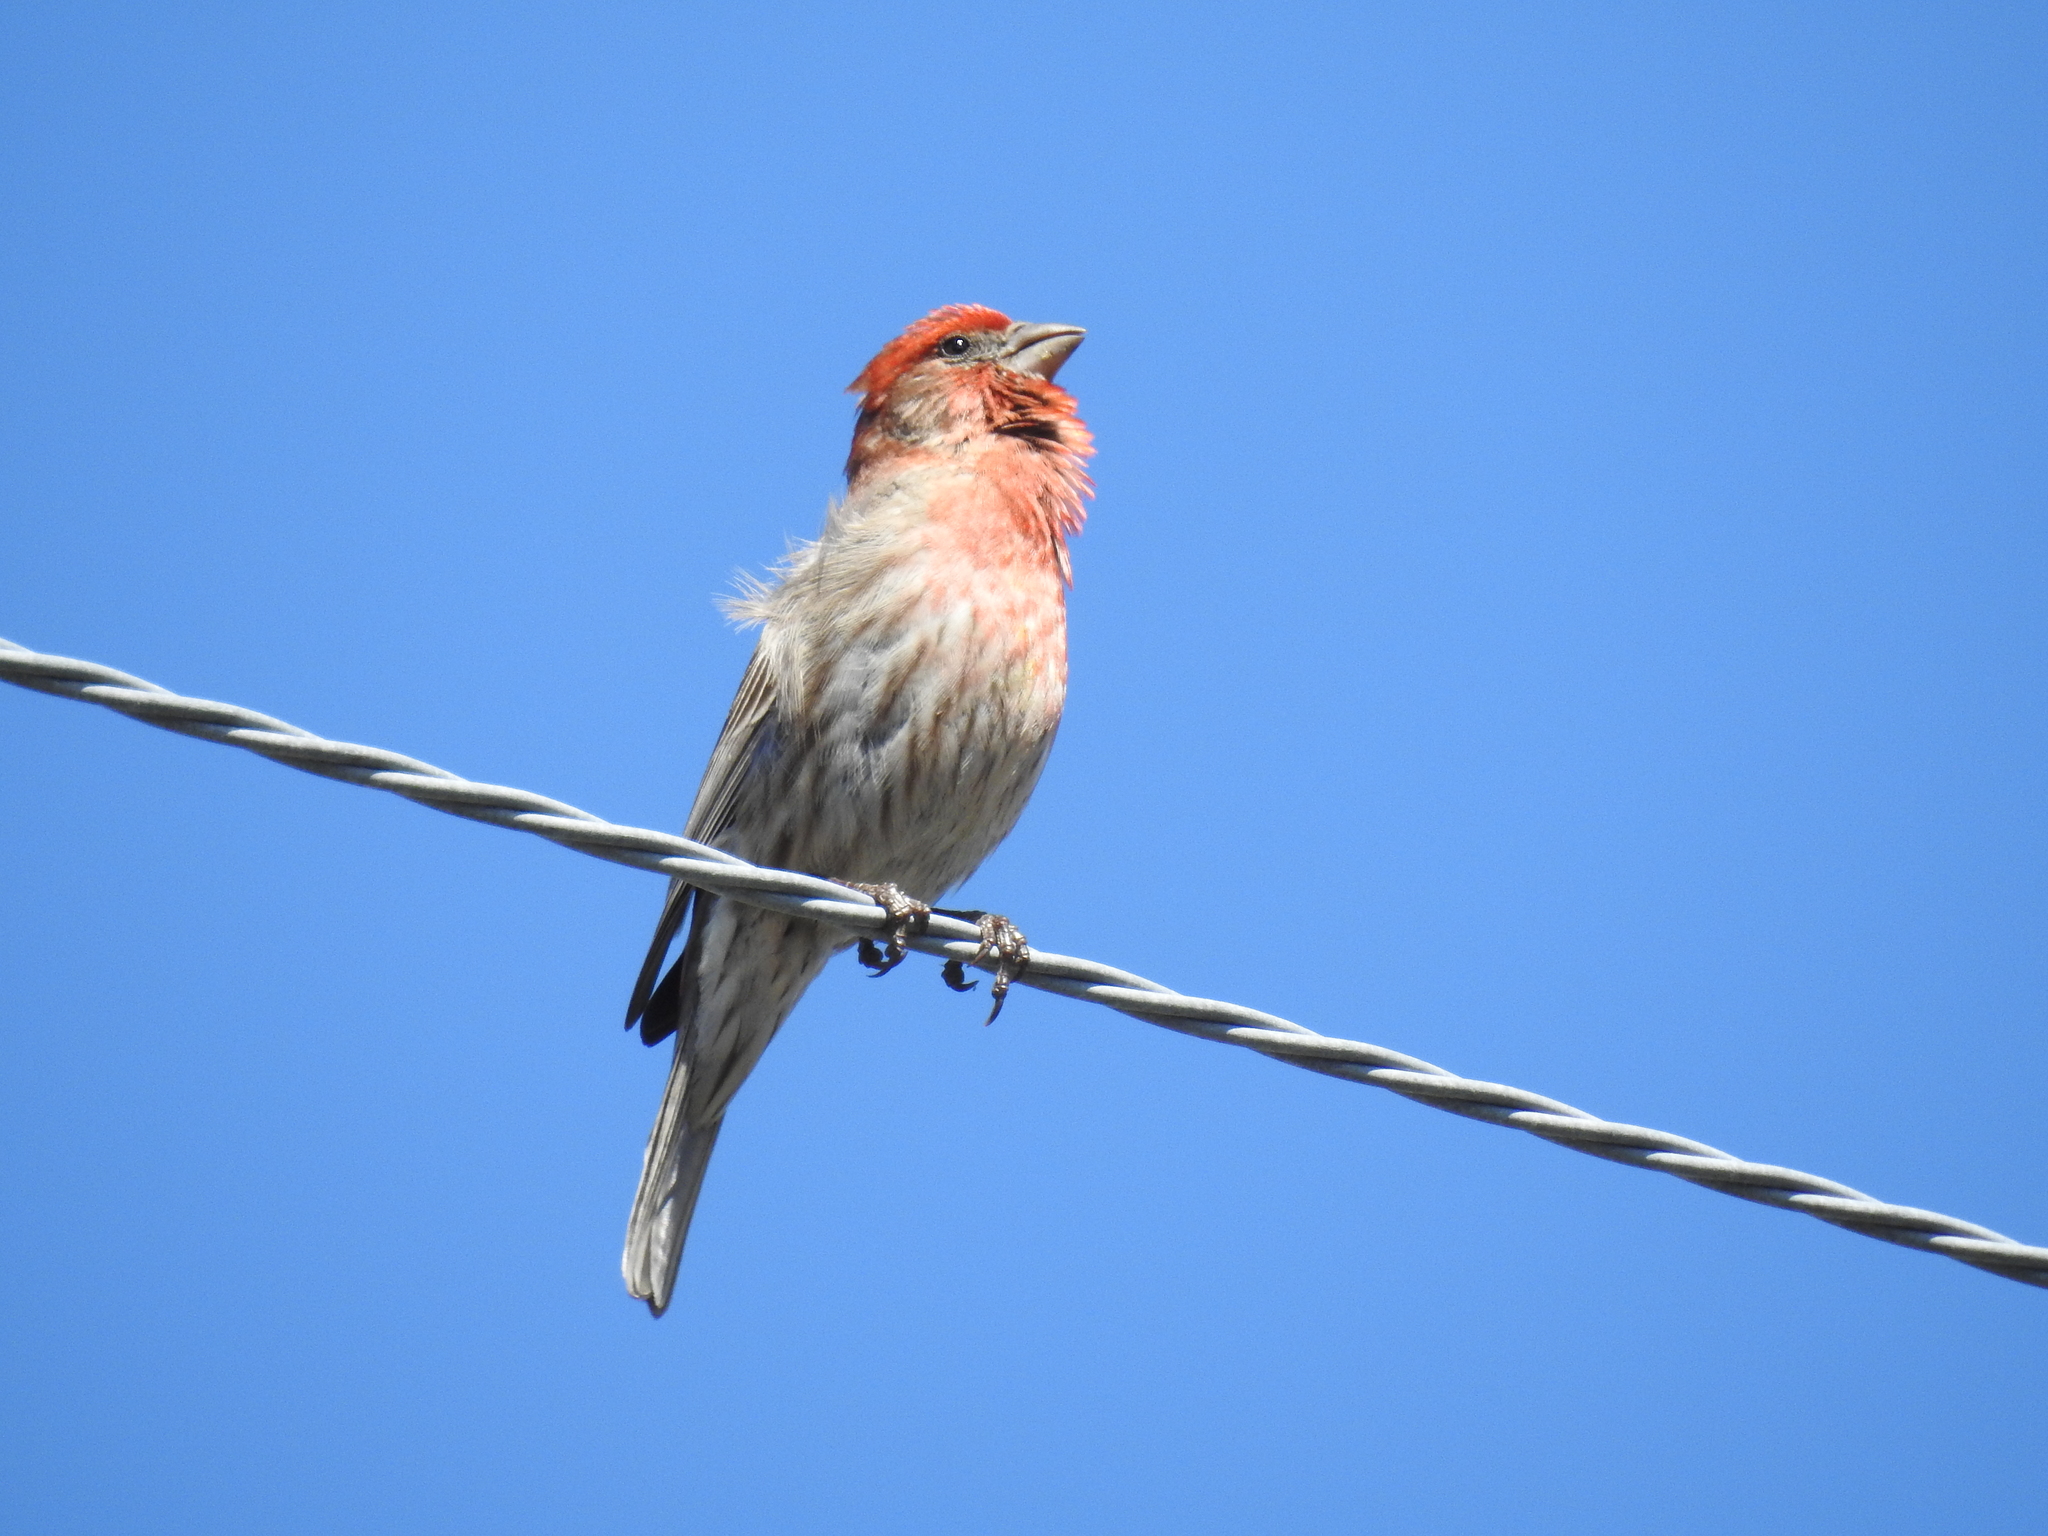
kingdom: Animalia
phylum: Chordata
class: Aves
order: Passeriformes
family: Fringillidae
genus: Haemorhous
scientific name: Haemorhous mexicanus
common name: House finch
